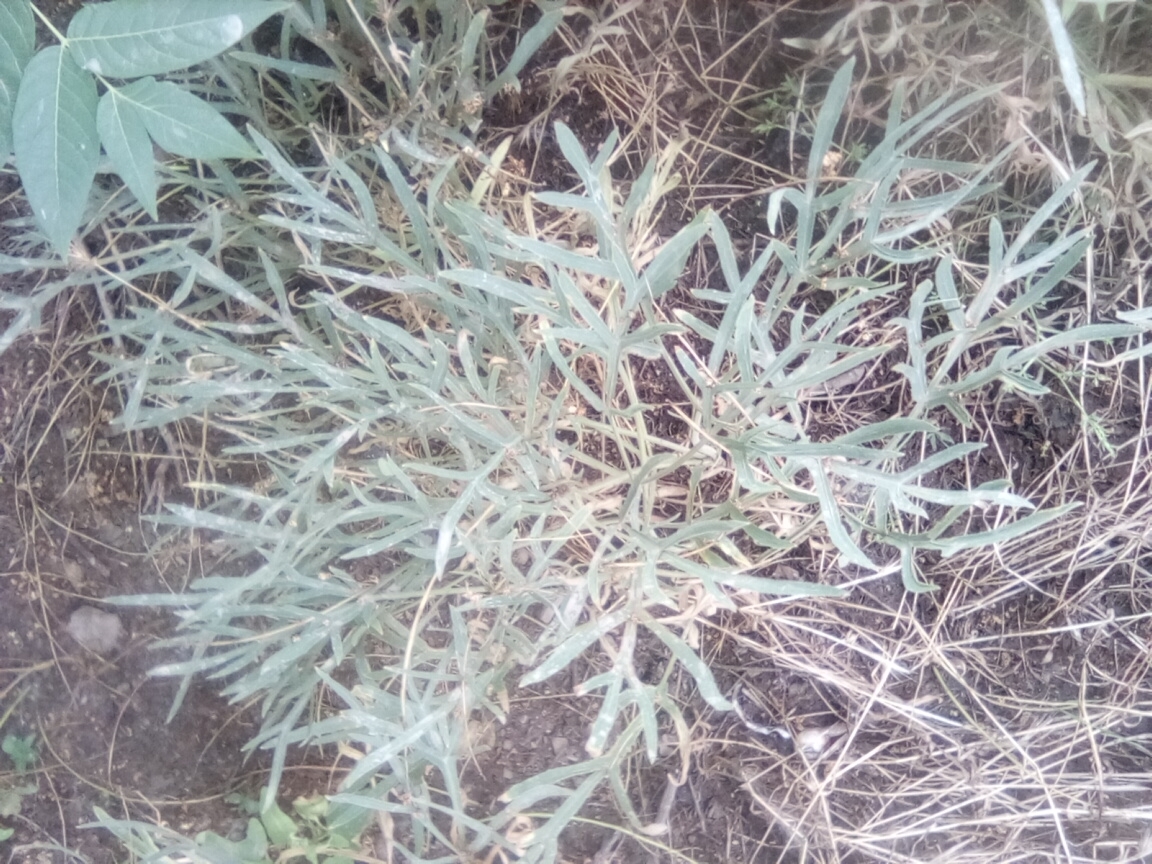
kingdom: Plantae
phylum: Tracheophyta
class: Magnoliopsida
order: Apiales
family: Apiaceae
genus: Falcaria
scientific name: Falcaria vulgaris
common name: Longleaf
